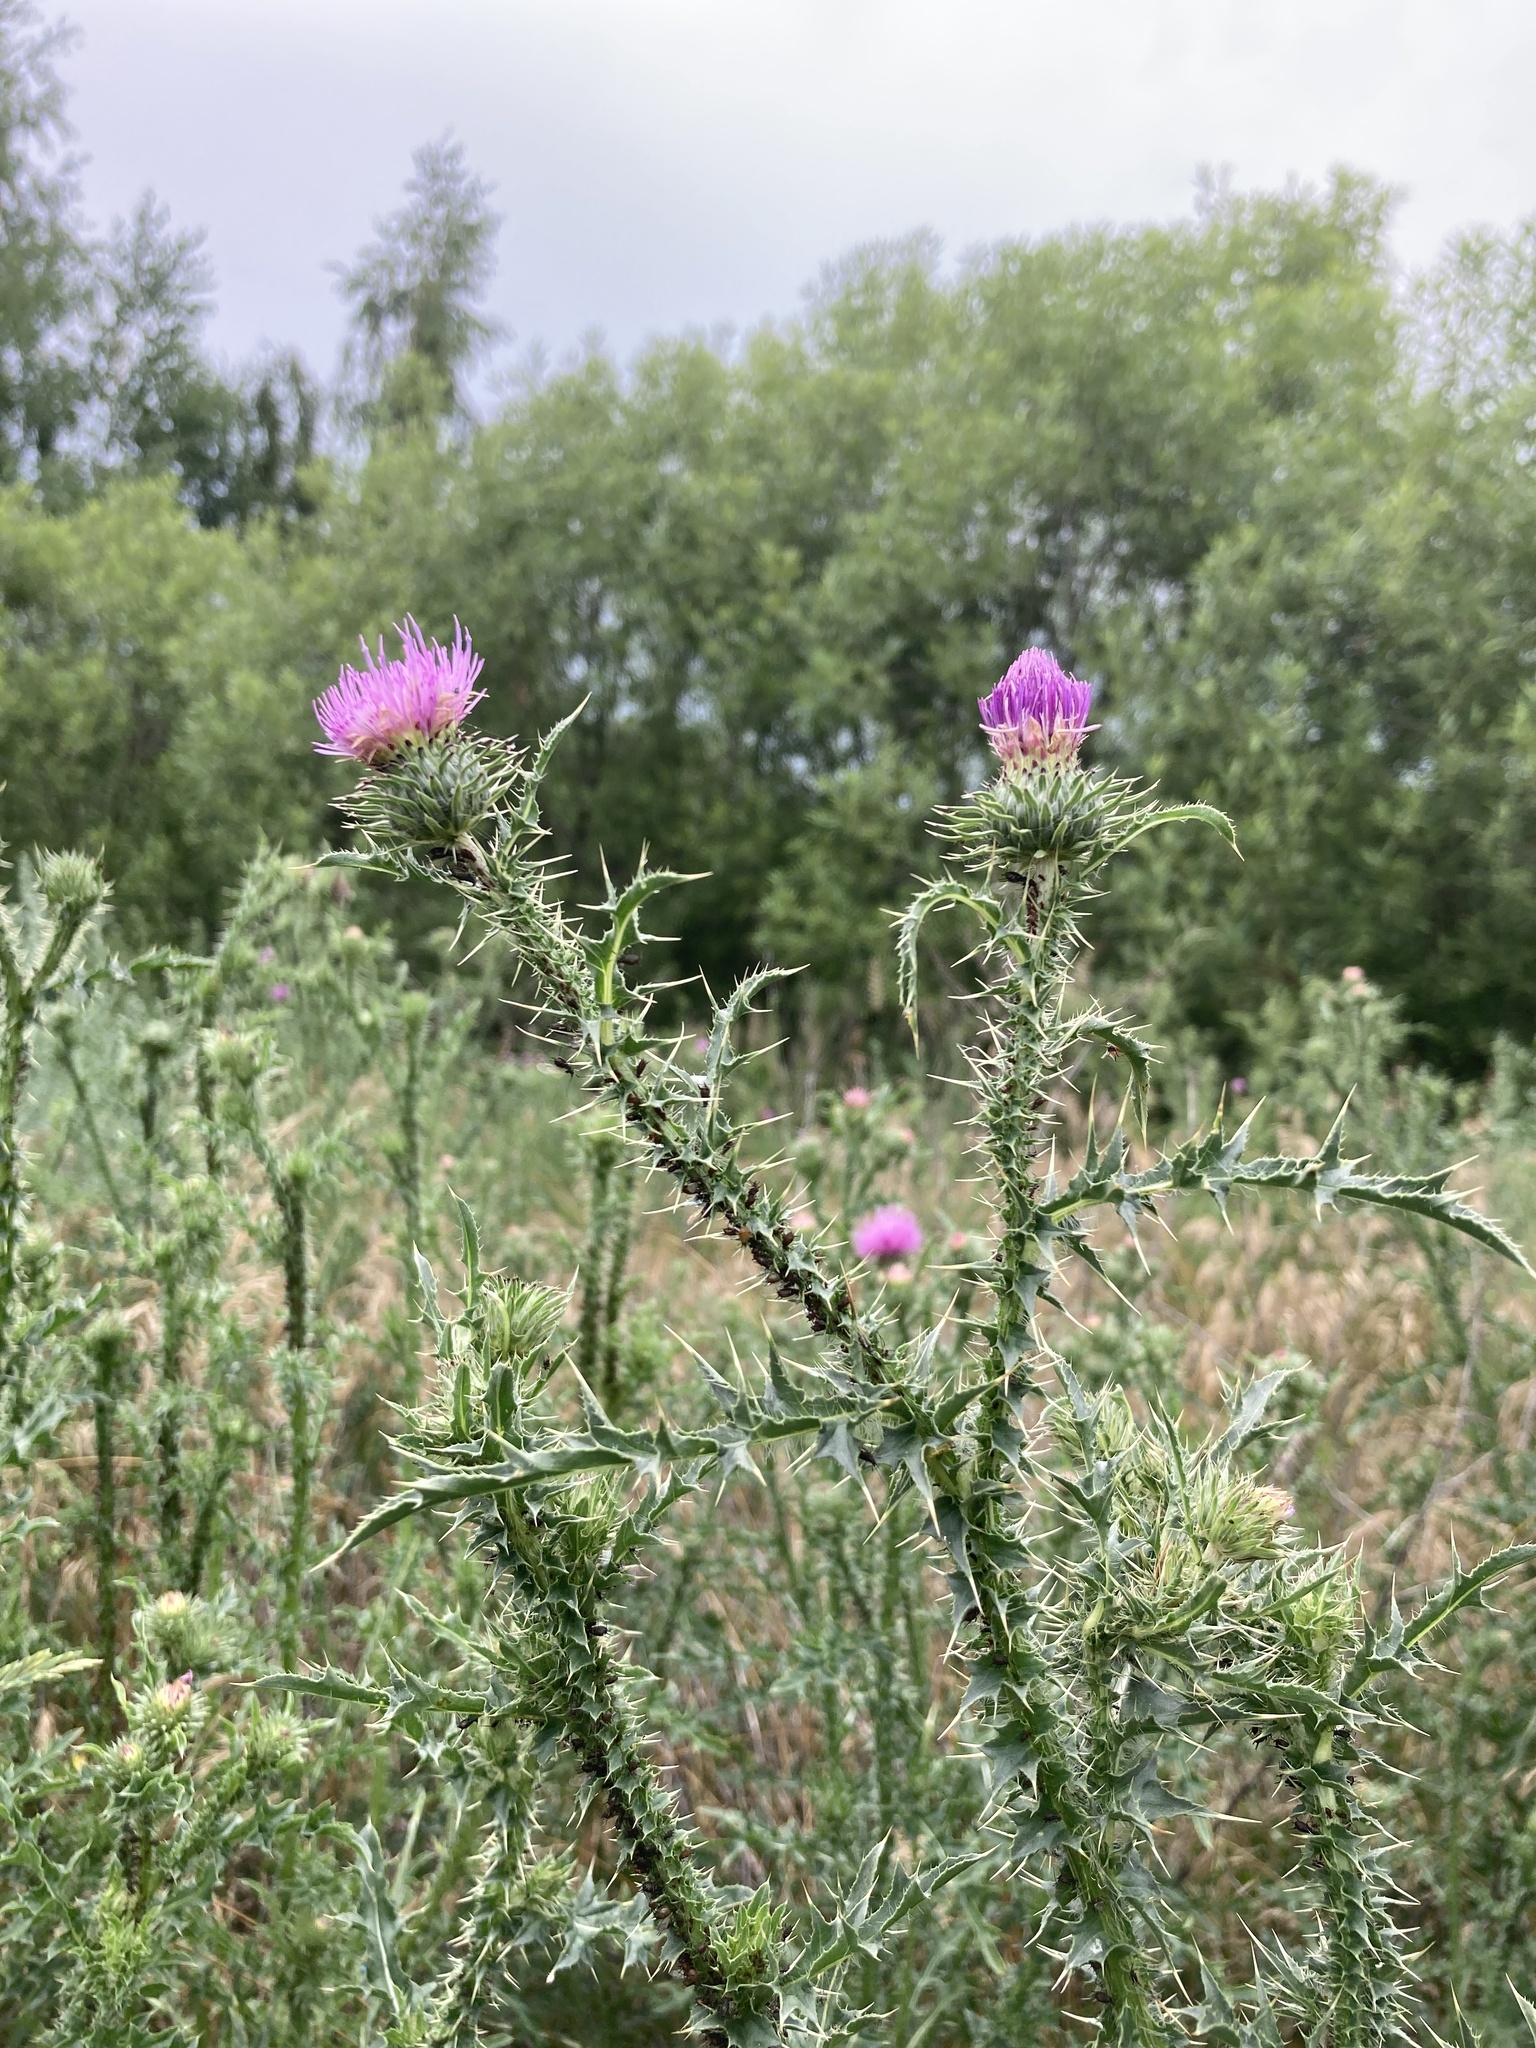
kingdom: Plantae
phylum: Tracheophyta
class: Magnoliopsida
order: Asterales
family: Asteraceae
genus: Carduus
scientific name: Carduus acanthoides
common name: Plumeless thistle
